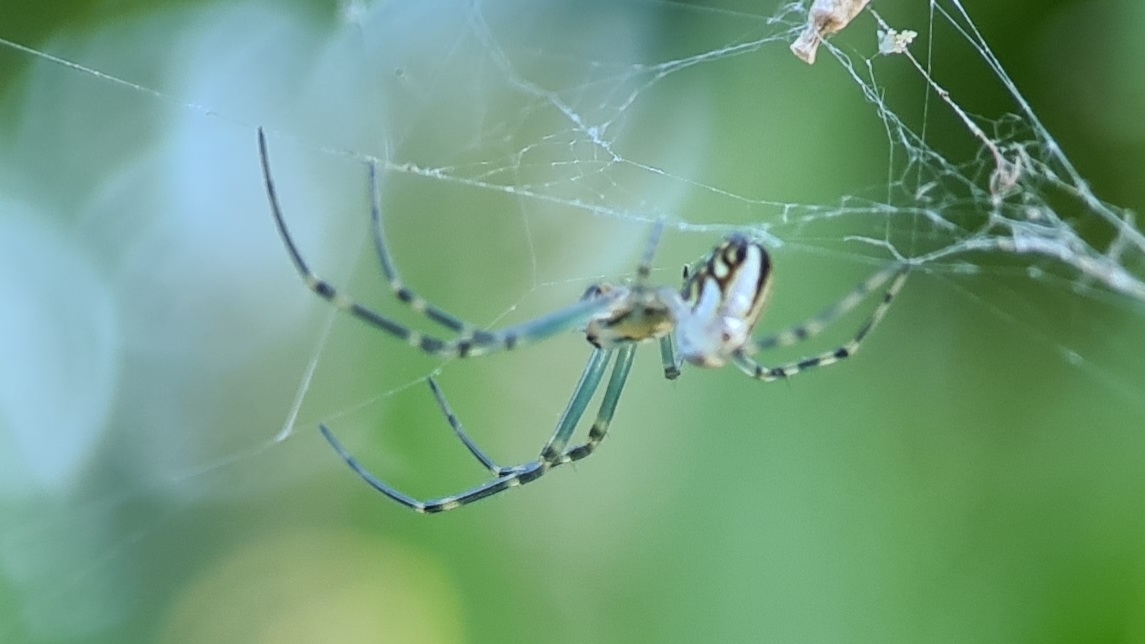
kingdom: Animalia
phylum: Arthropoda
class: Arachnida
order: Araneae
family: Tetragnathidae
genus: Leucauge
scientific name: Leucauge dromedaria
